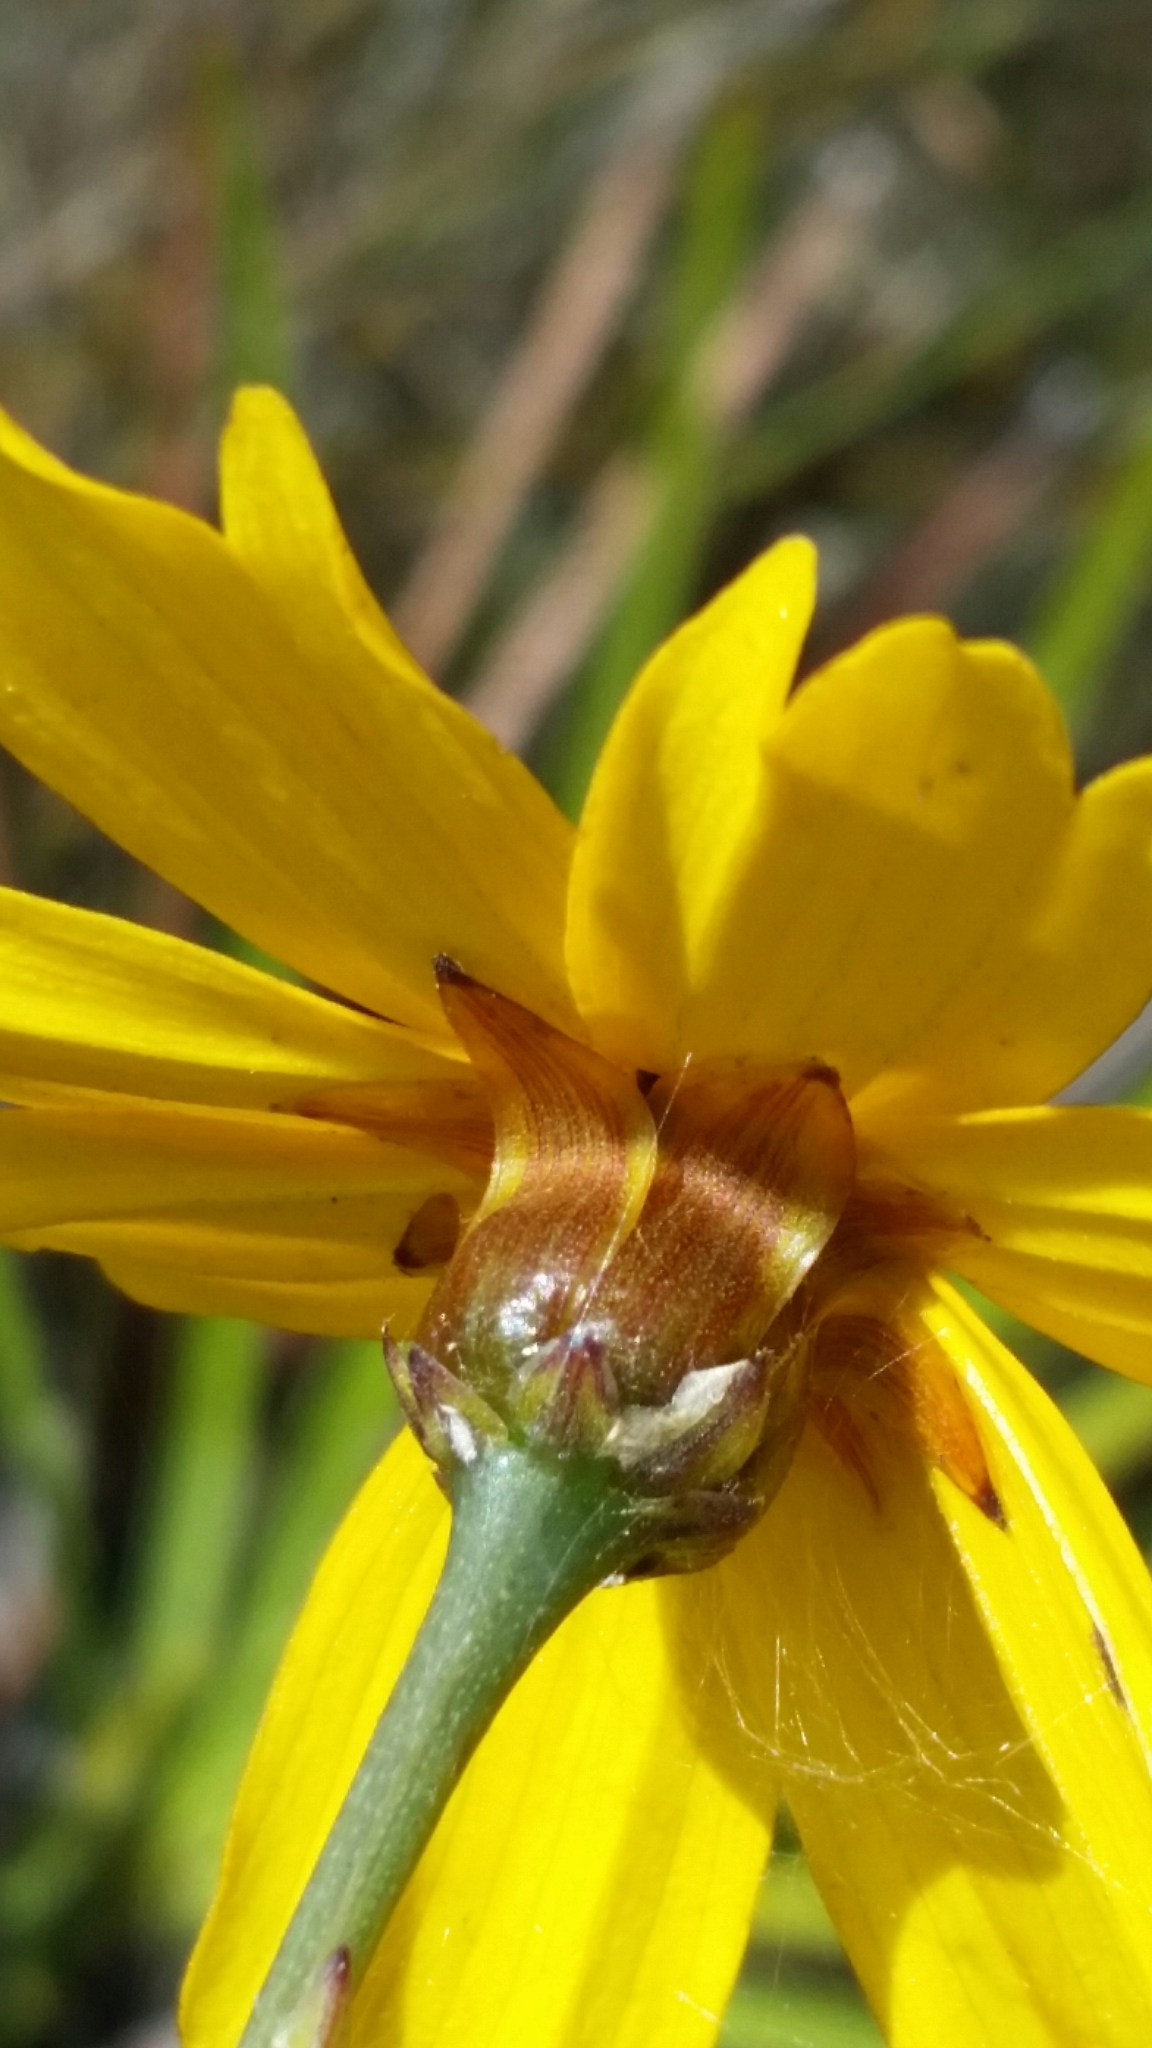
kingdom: Plantae
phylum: Tracheophyta
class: Magnoliopsida
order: Asterales
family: Asteraceae
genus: Coreopsis
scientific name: Coreopsis gladiata
